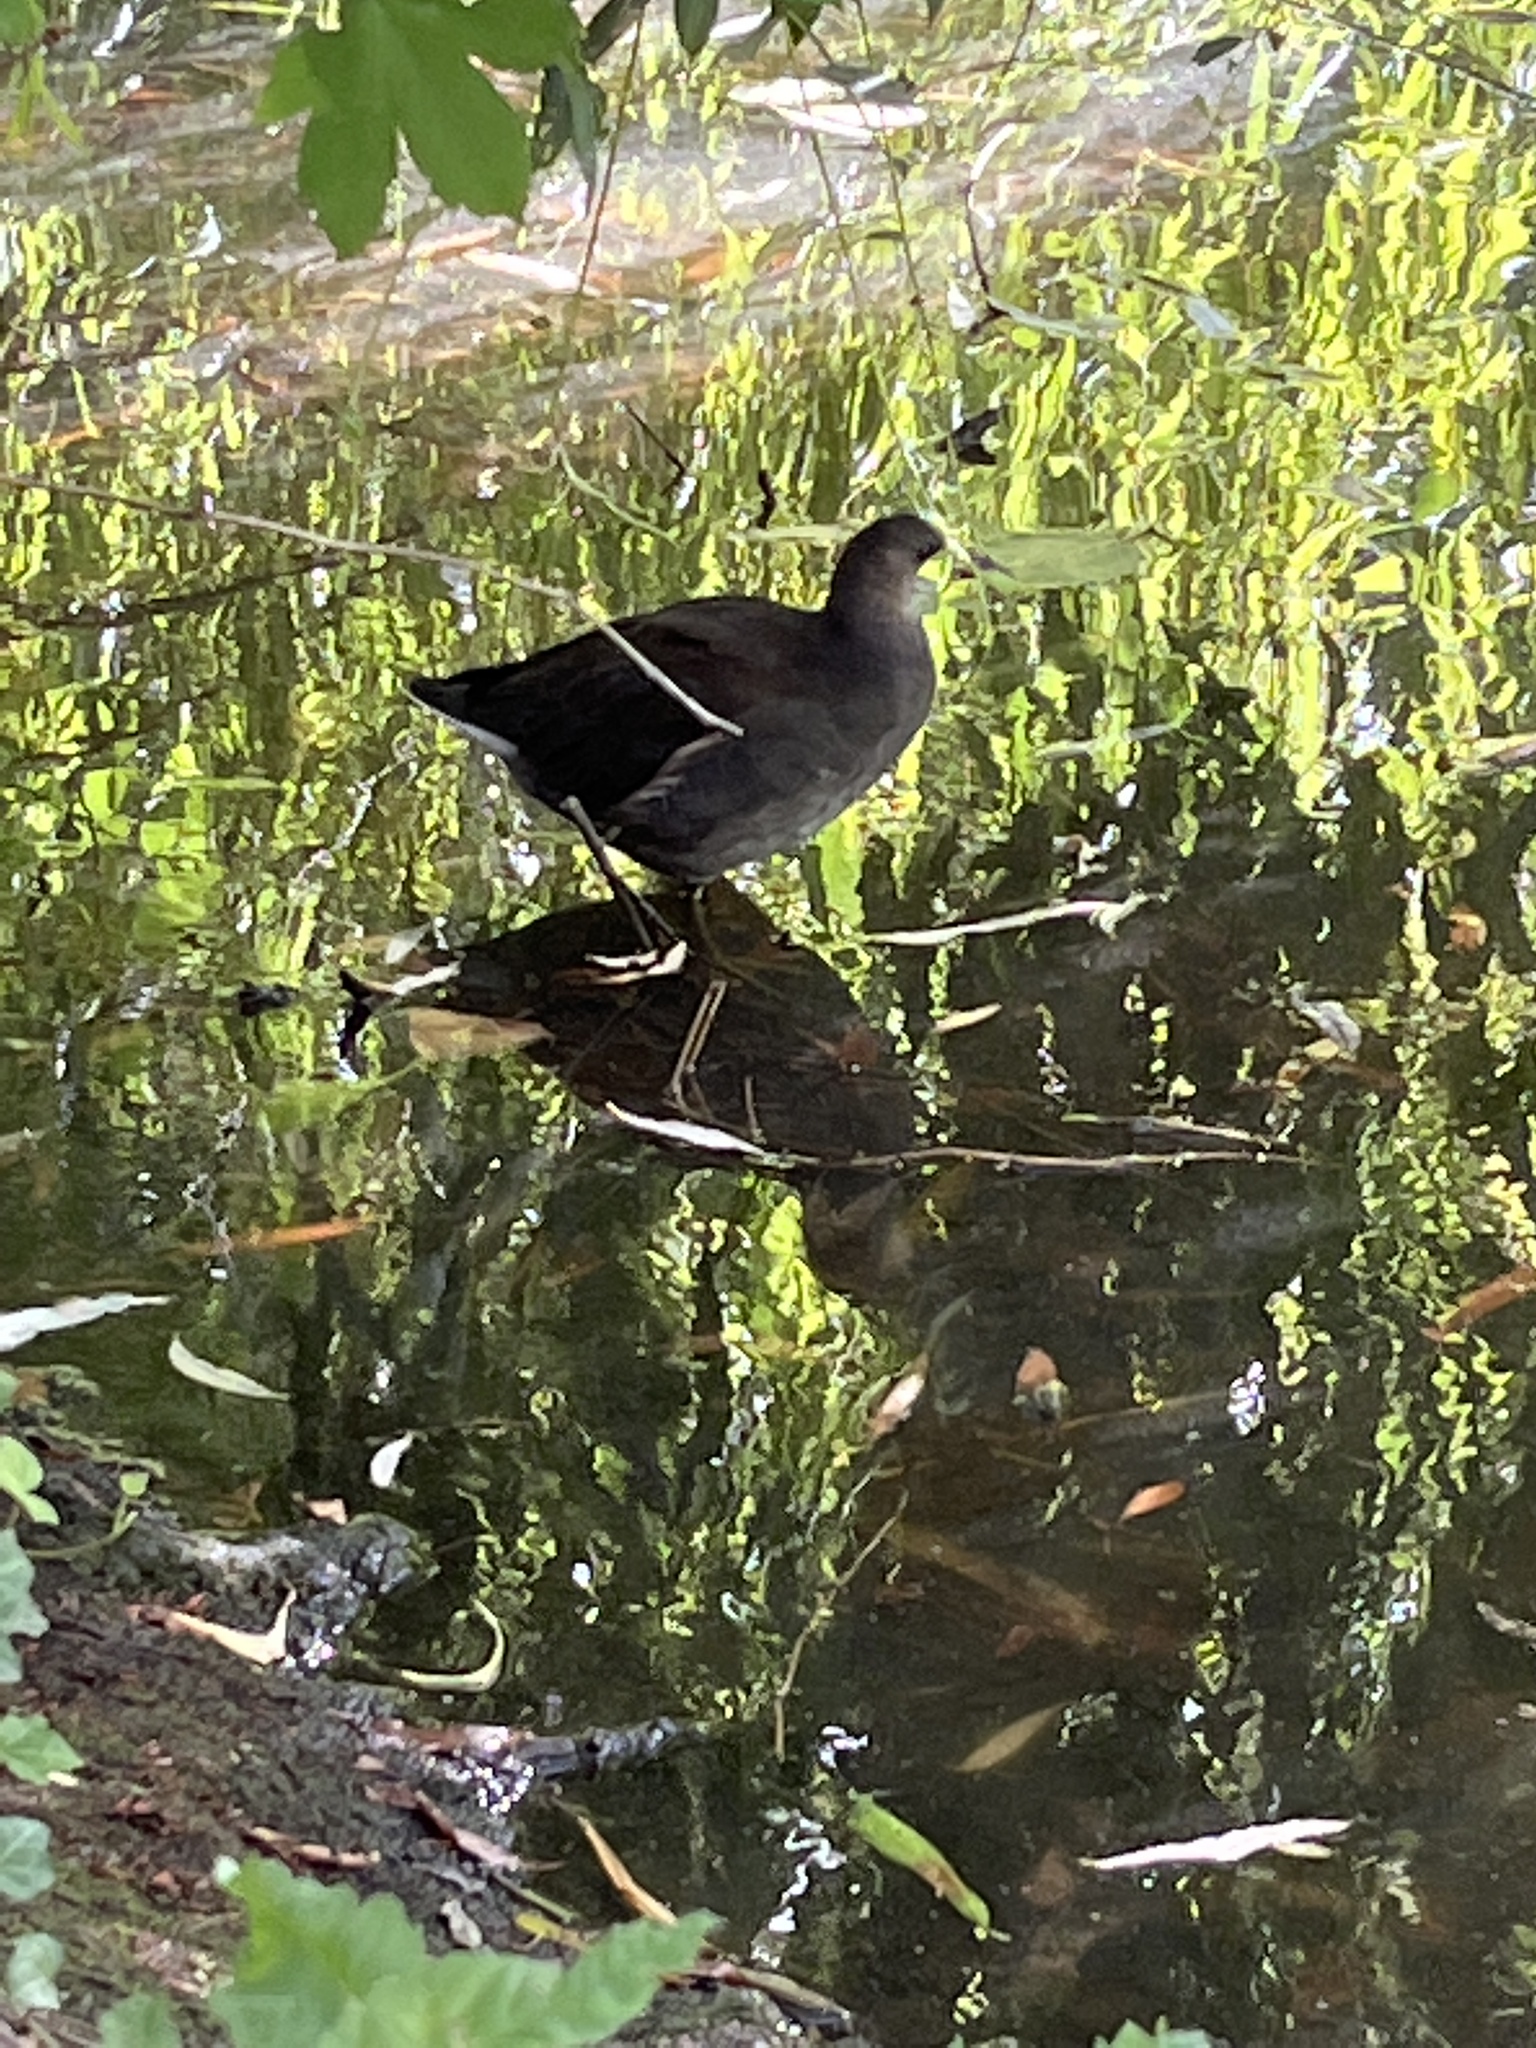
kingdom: Animalia
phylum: Chordata
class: Aves
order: Gruiformes
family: Rallidae
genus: Gallinula
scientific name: Gallinula chloropus
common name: Common moorhen
